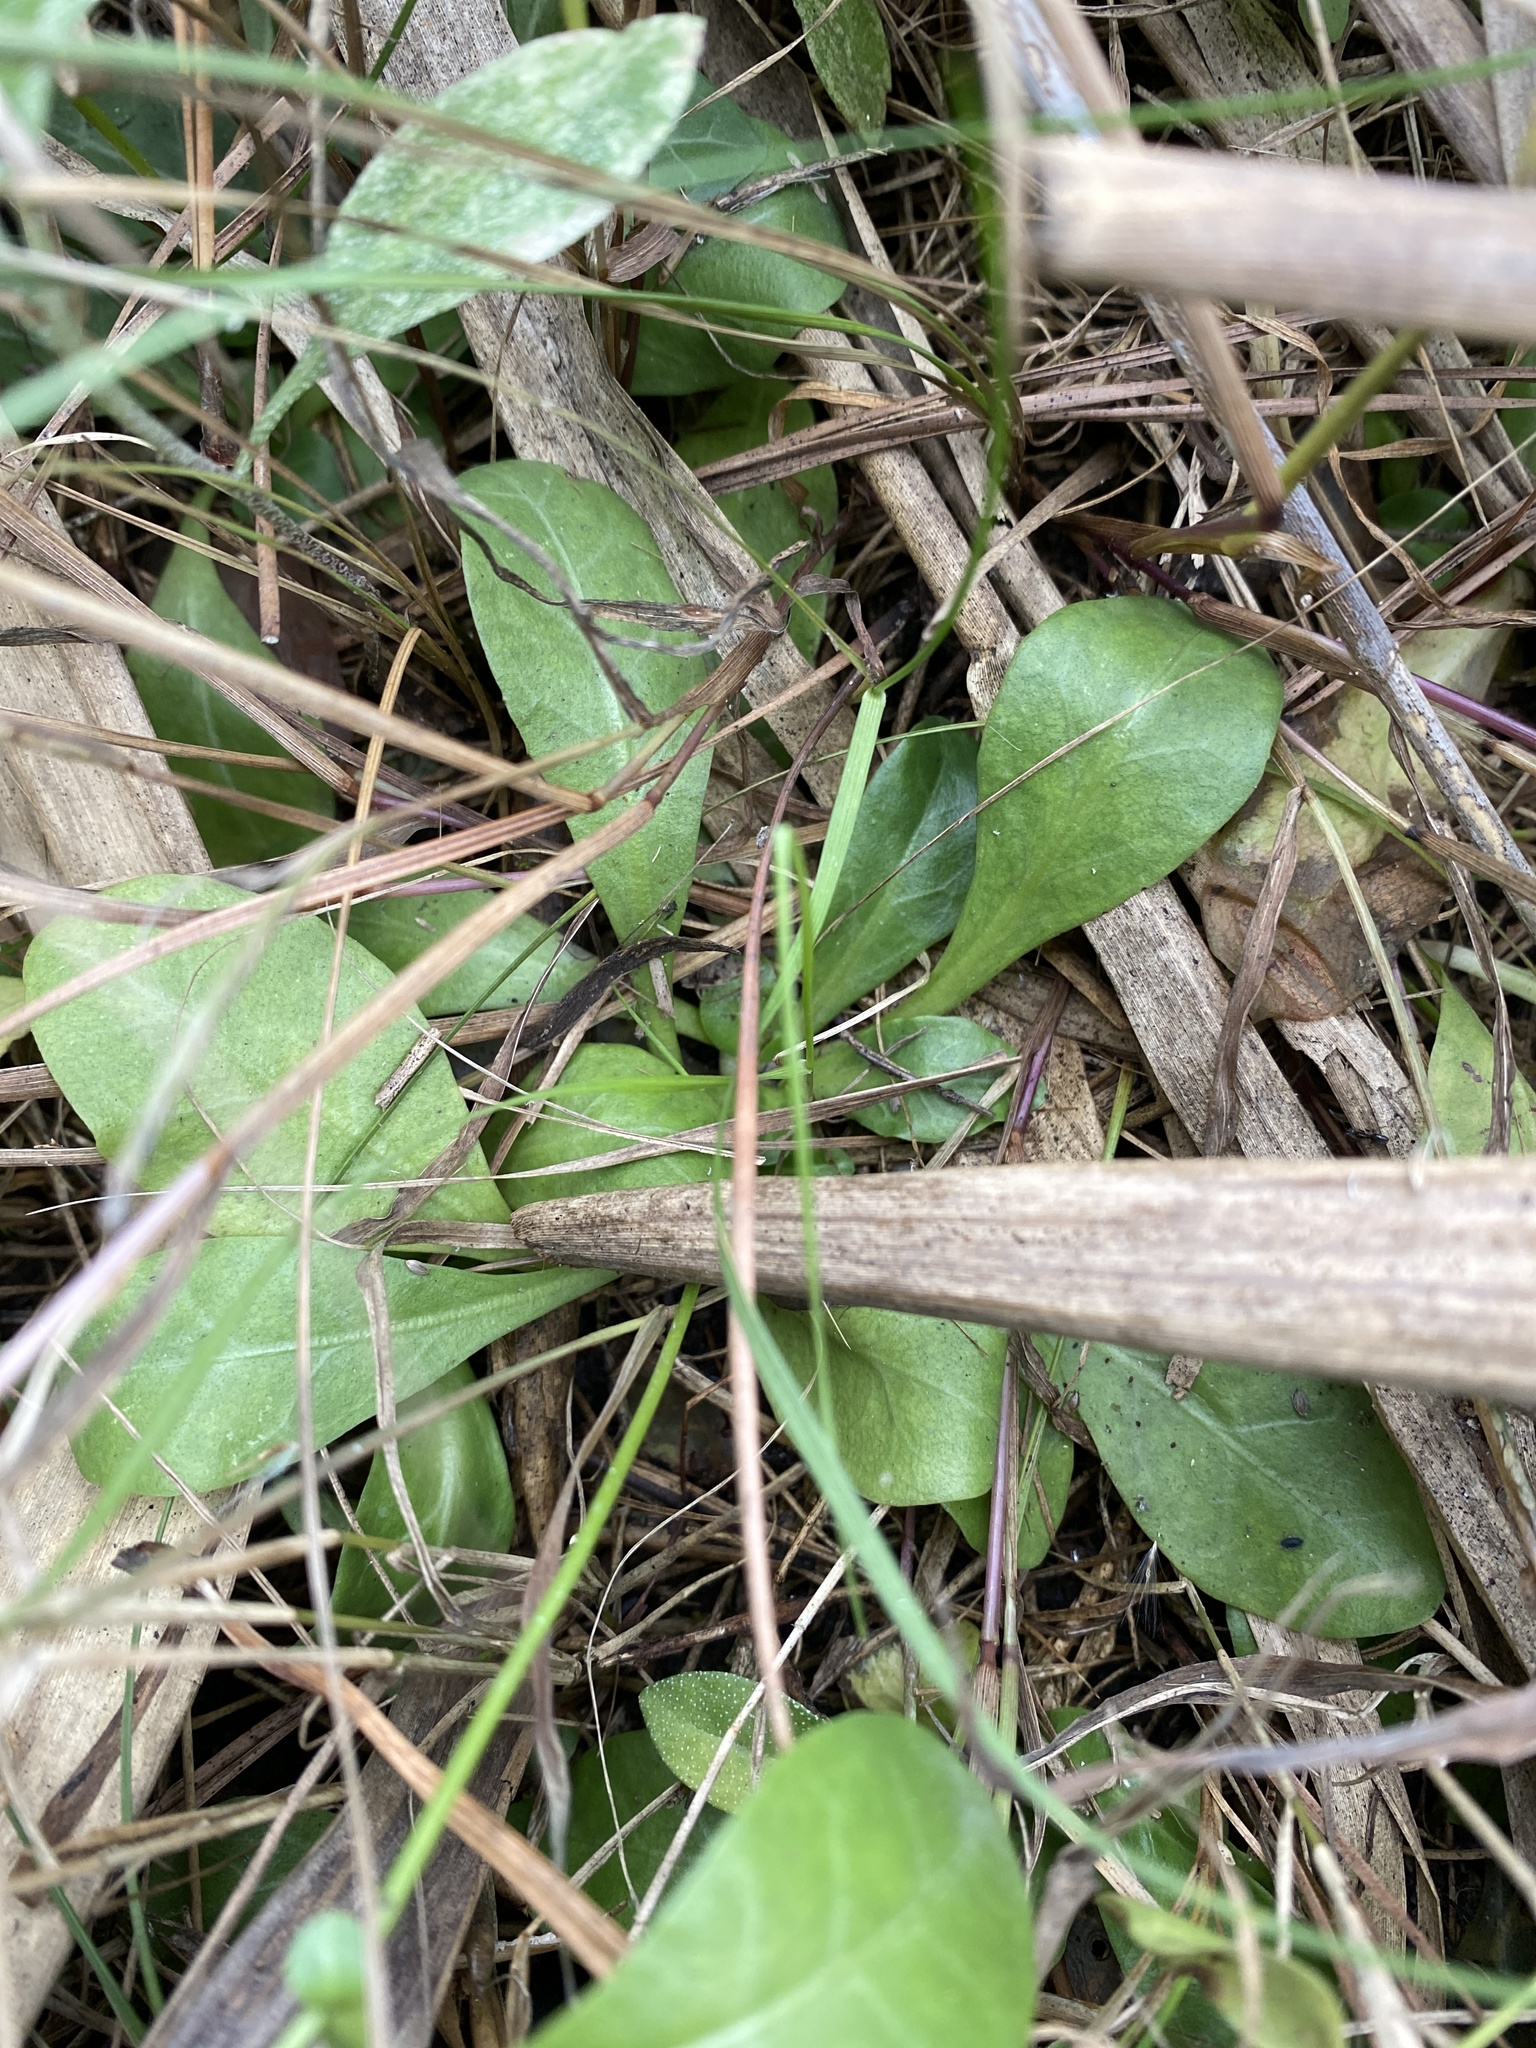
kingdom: Plantae
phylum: Tracheophyta
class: Magnoliopsida
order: Ericales
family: Primulaceae
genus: Samolus
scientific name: Samolus parviflorus
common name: False water pimpernel
